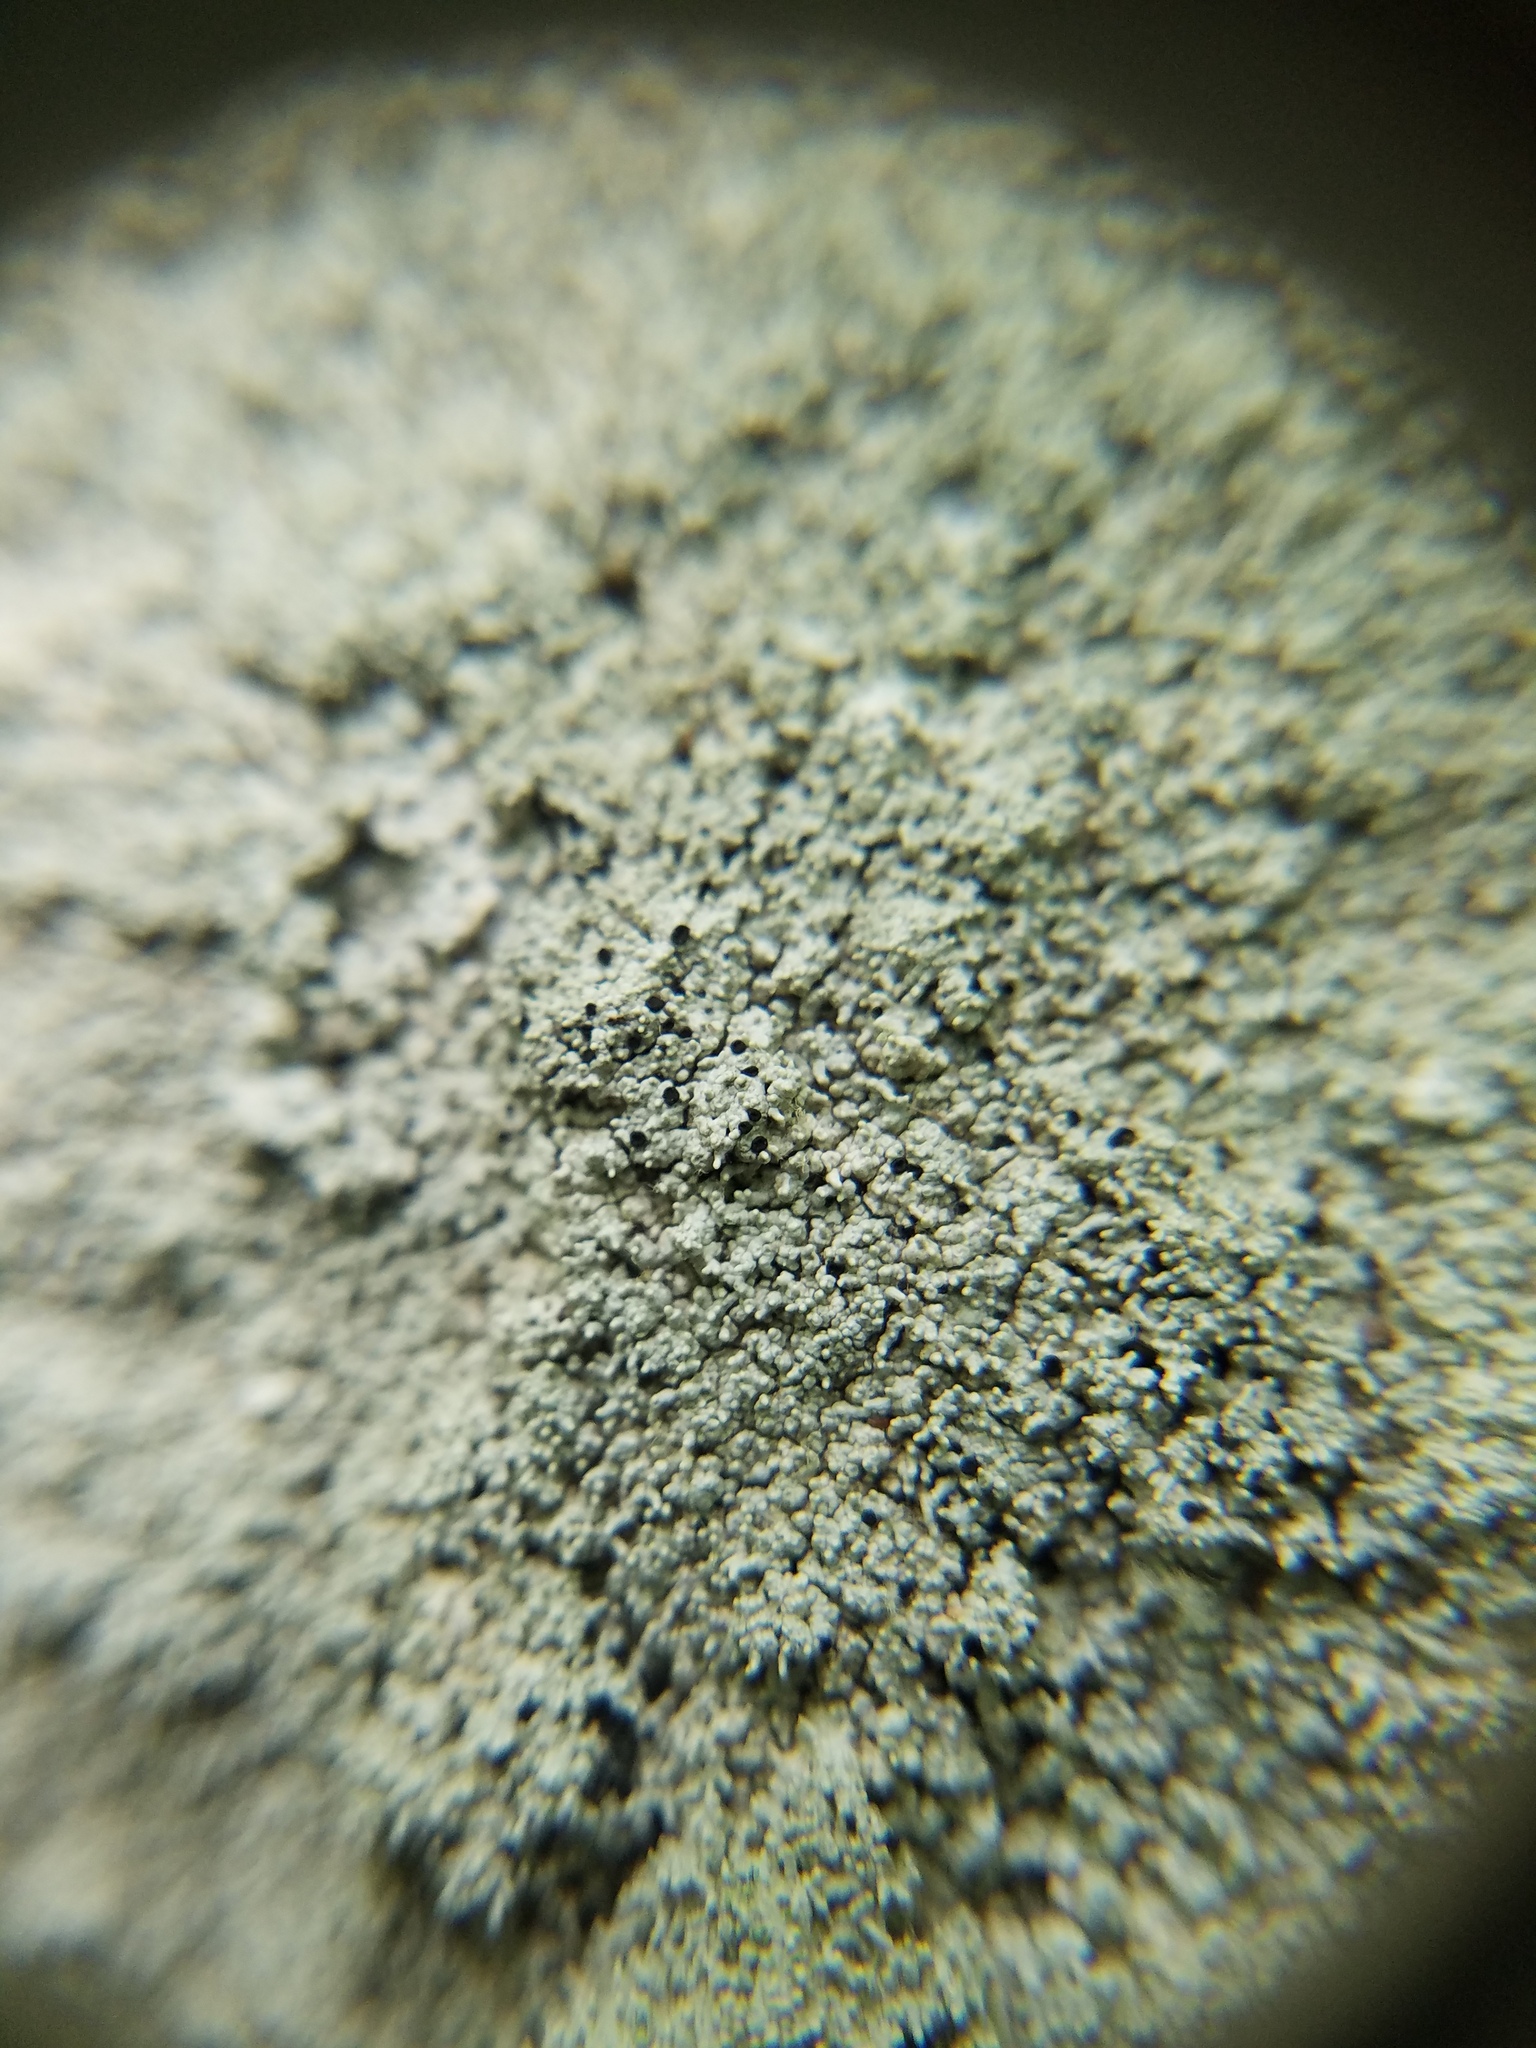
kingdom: Fungi
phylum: Ascomycota
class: Lecanoromycetes
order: Pertusariales
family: Ochrolechiaceae
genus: Ochrolechia
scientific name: Ochrolechia yasudae
